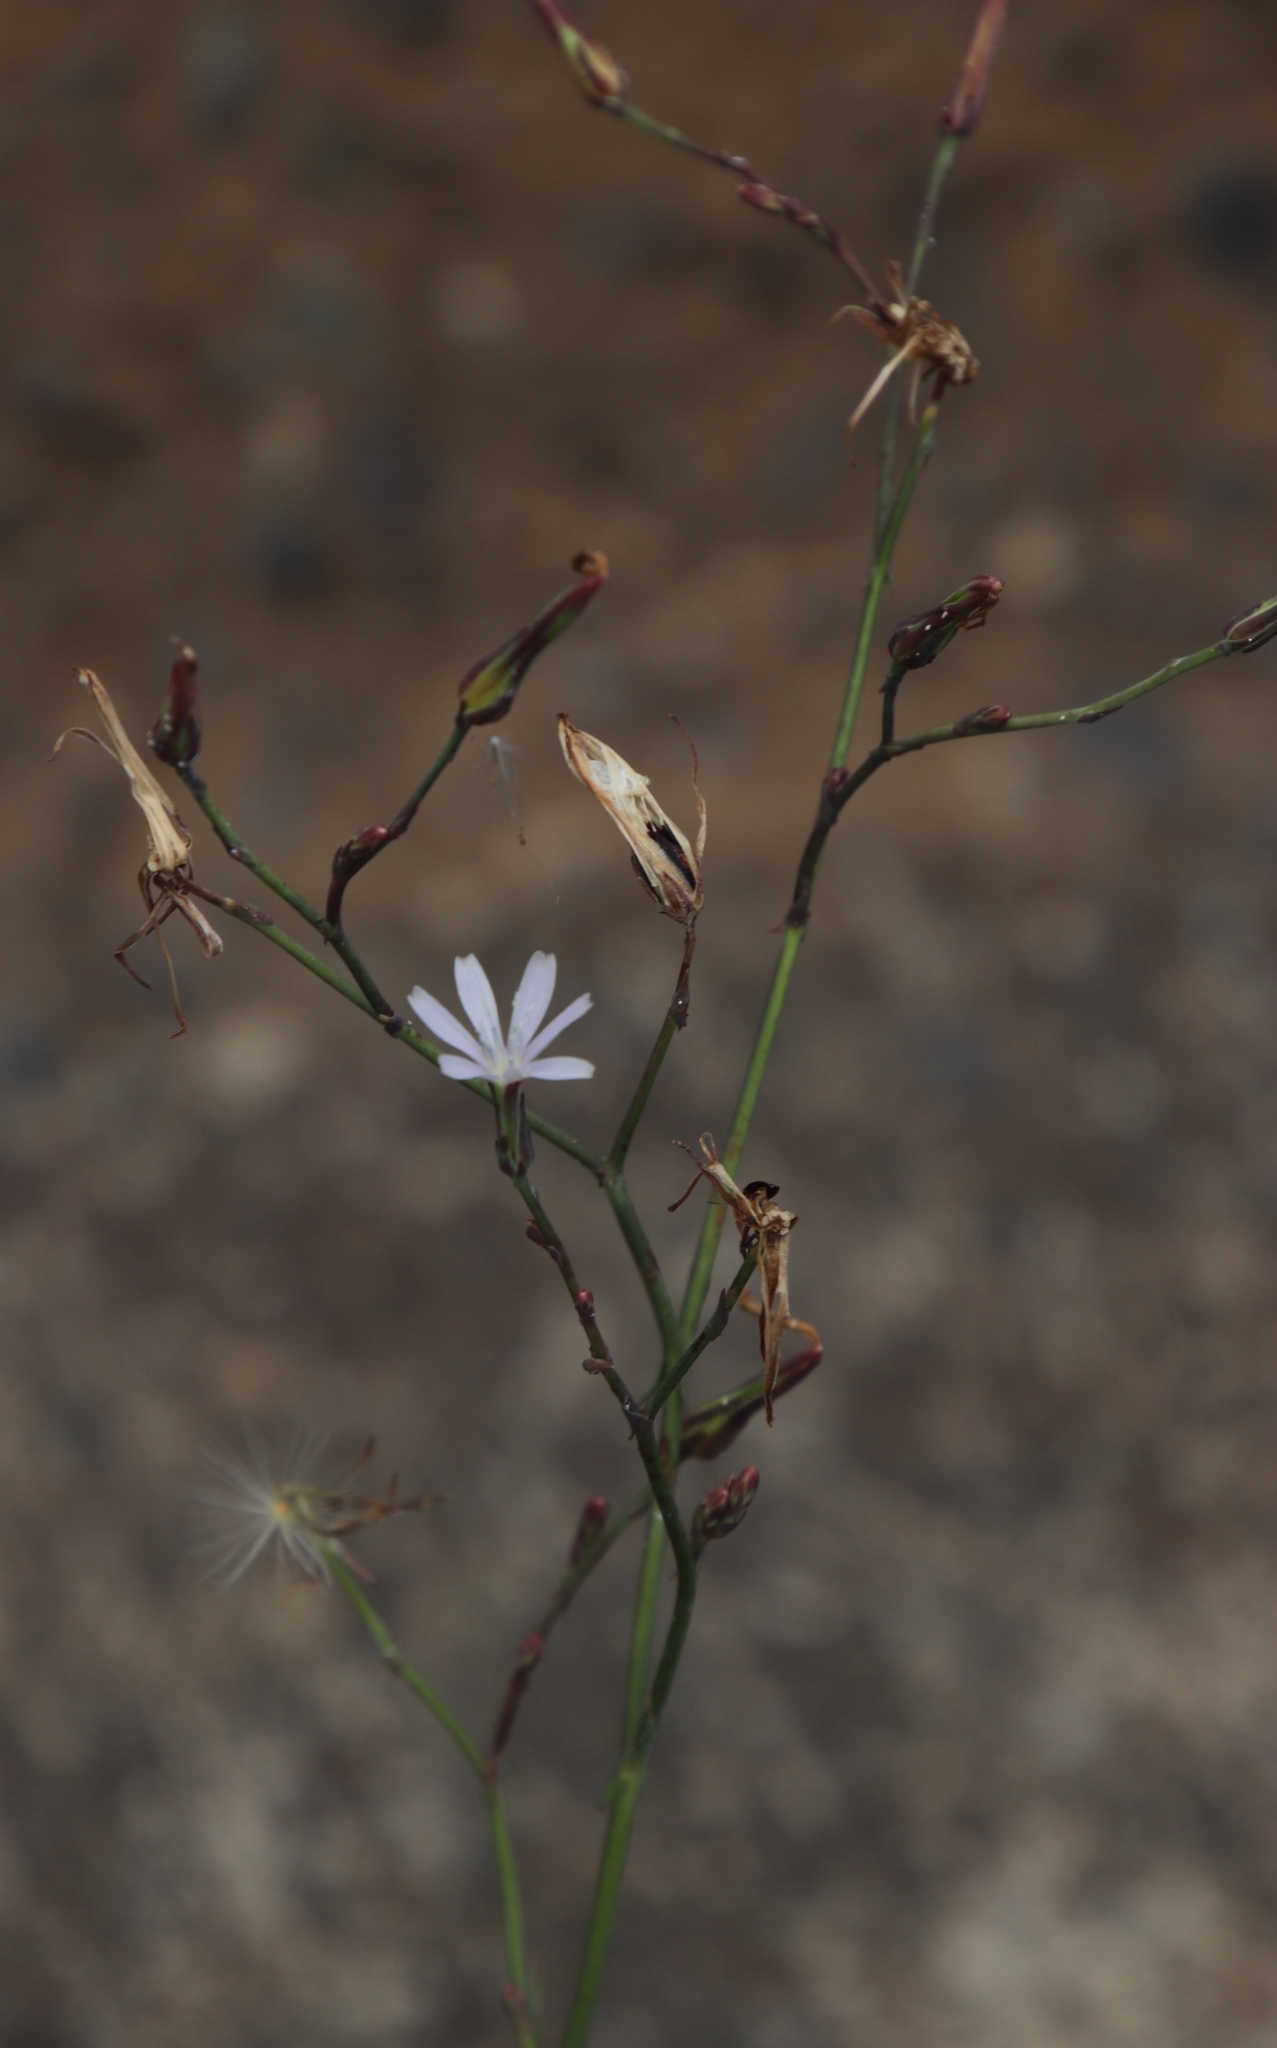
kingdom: Plantae
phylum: Tracheophyta
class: Magnoliopsida
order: Asterales
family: Asteraceae
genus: Lactuca
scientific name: Lactuca inermis
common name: Wild lettuce
